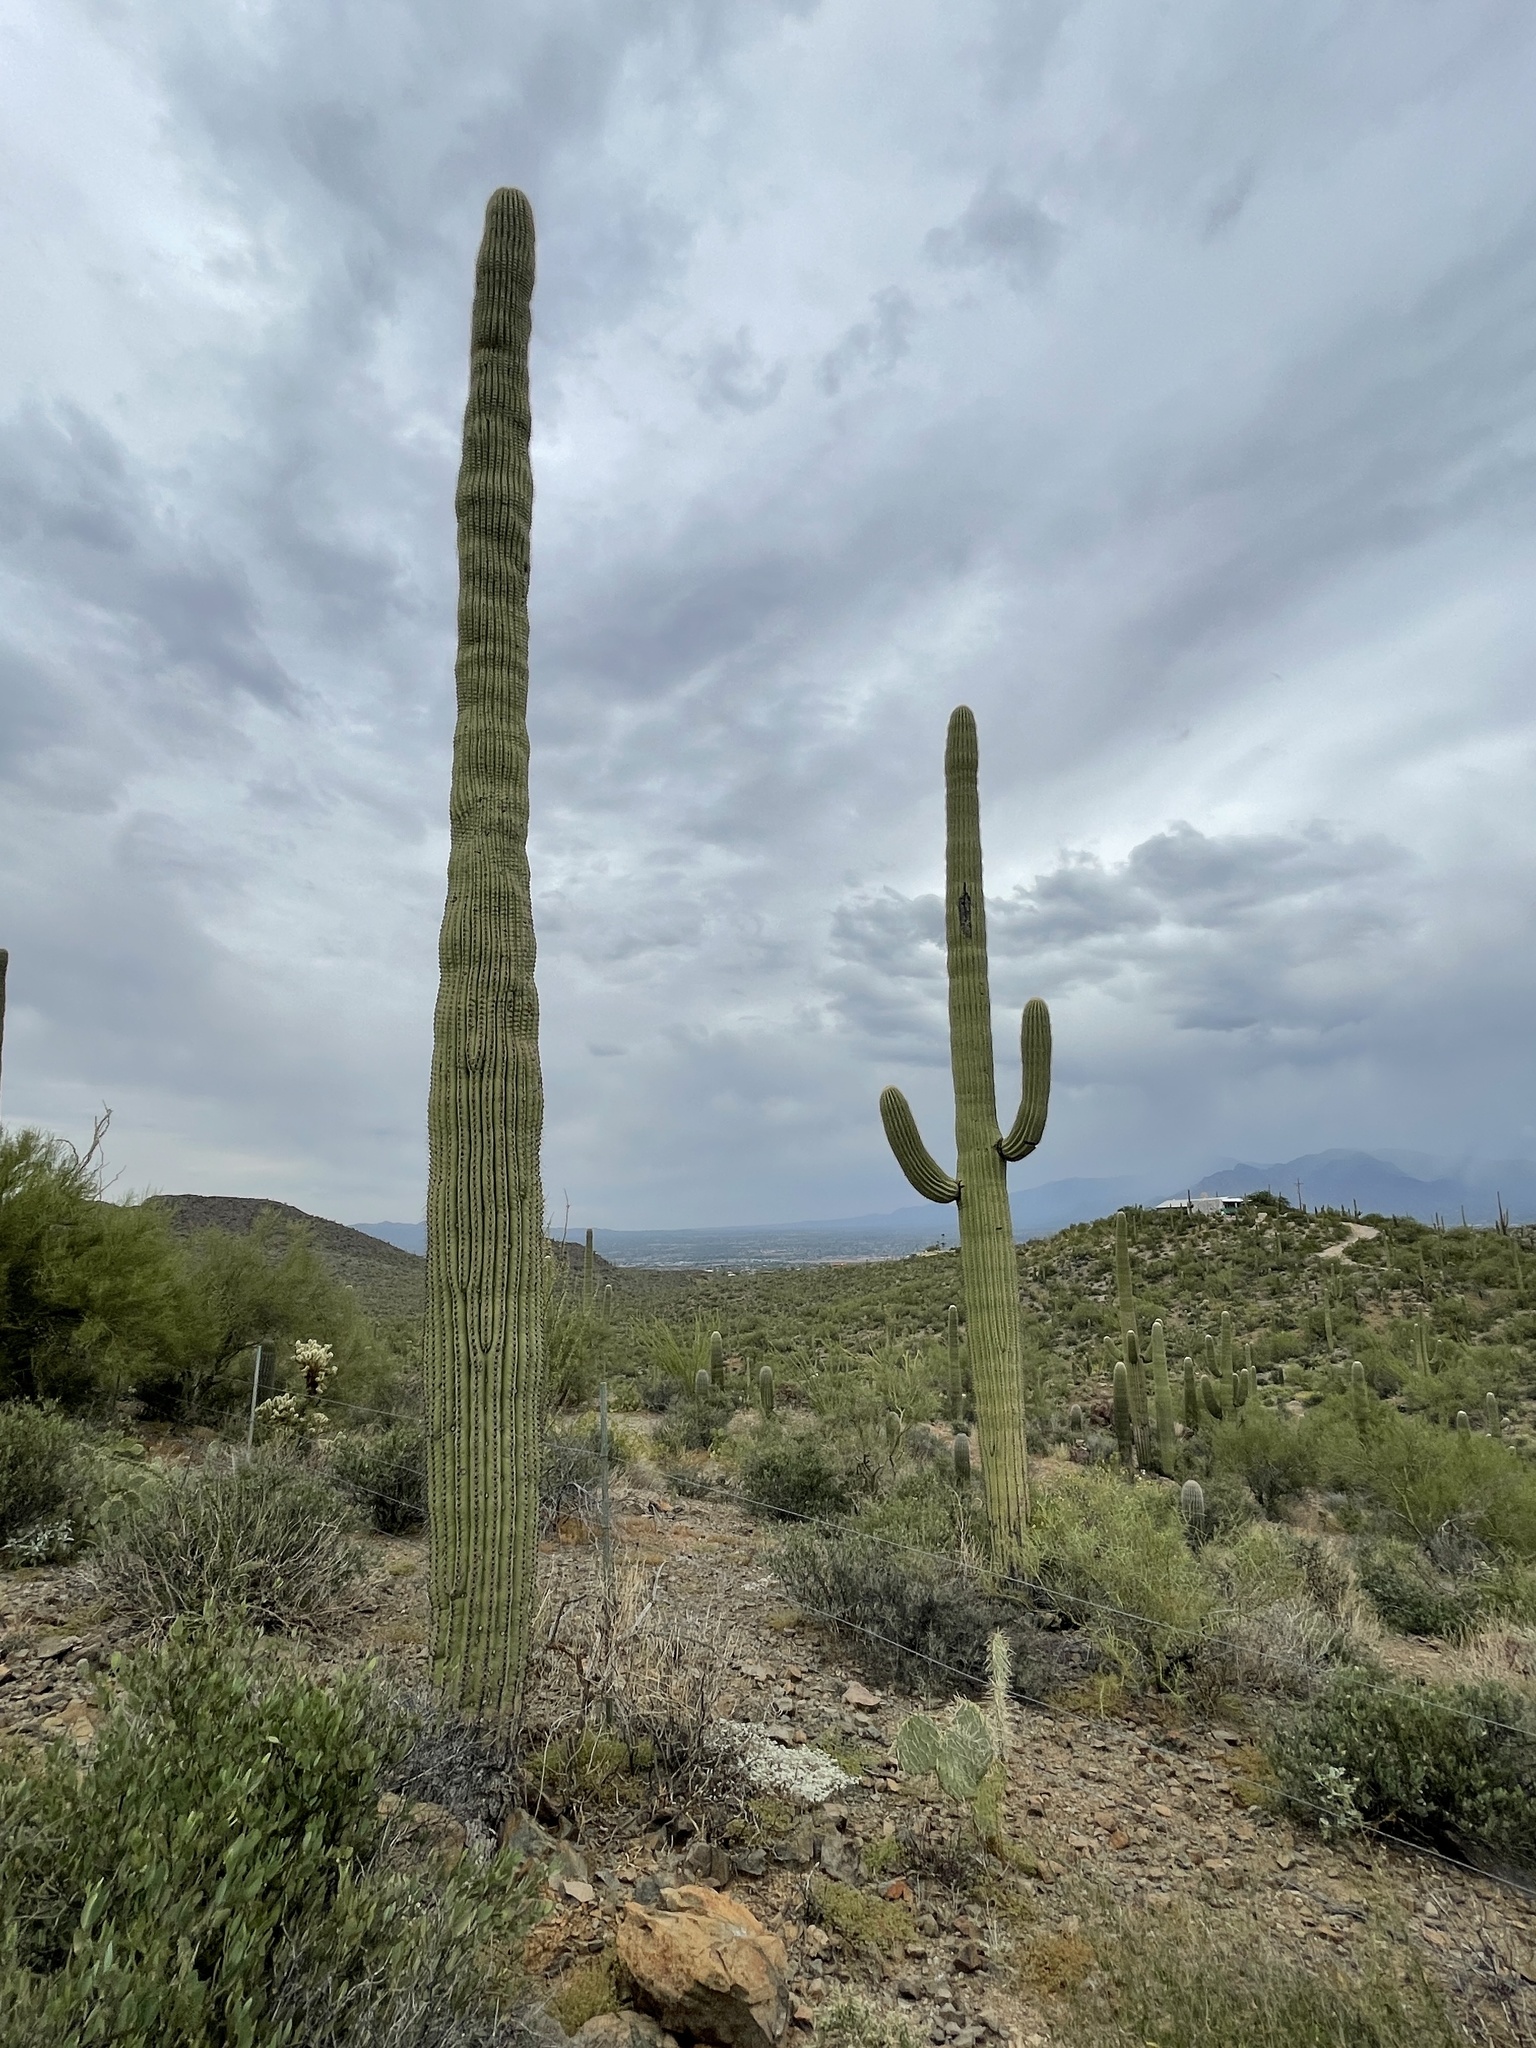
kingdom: Plantae
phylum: Tracheophyta
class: Magnoliopsida
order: Caryophyllales
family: Cactaceae
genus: Carnegiea
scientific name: Carnegiea gigantea
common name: Saguaro
